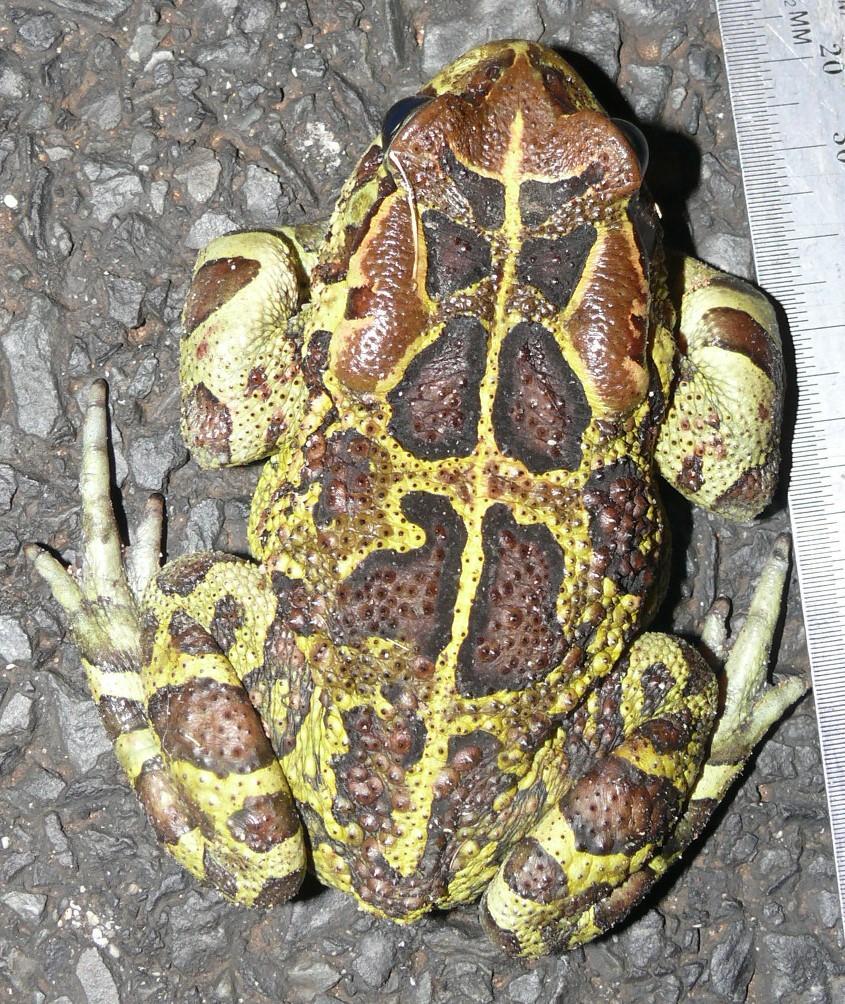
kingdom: Animalia
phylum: Chordata
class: Amphibia
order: Anura
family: Bufonidae
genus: Sclerophrys
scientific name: Sclerophrys pantherina
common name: Panther toad
